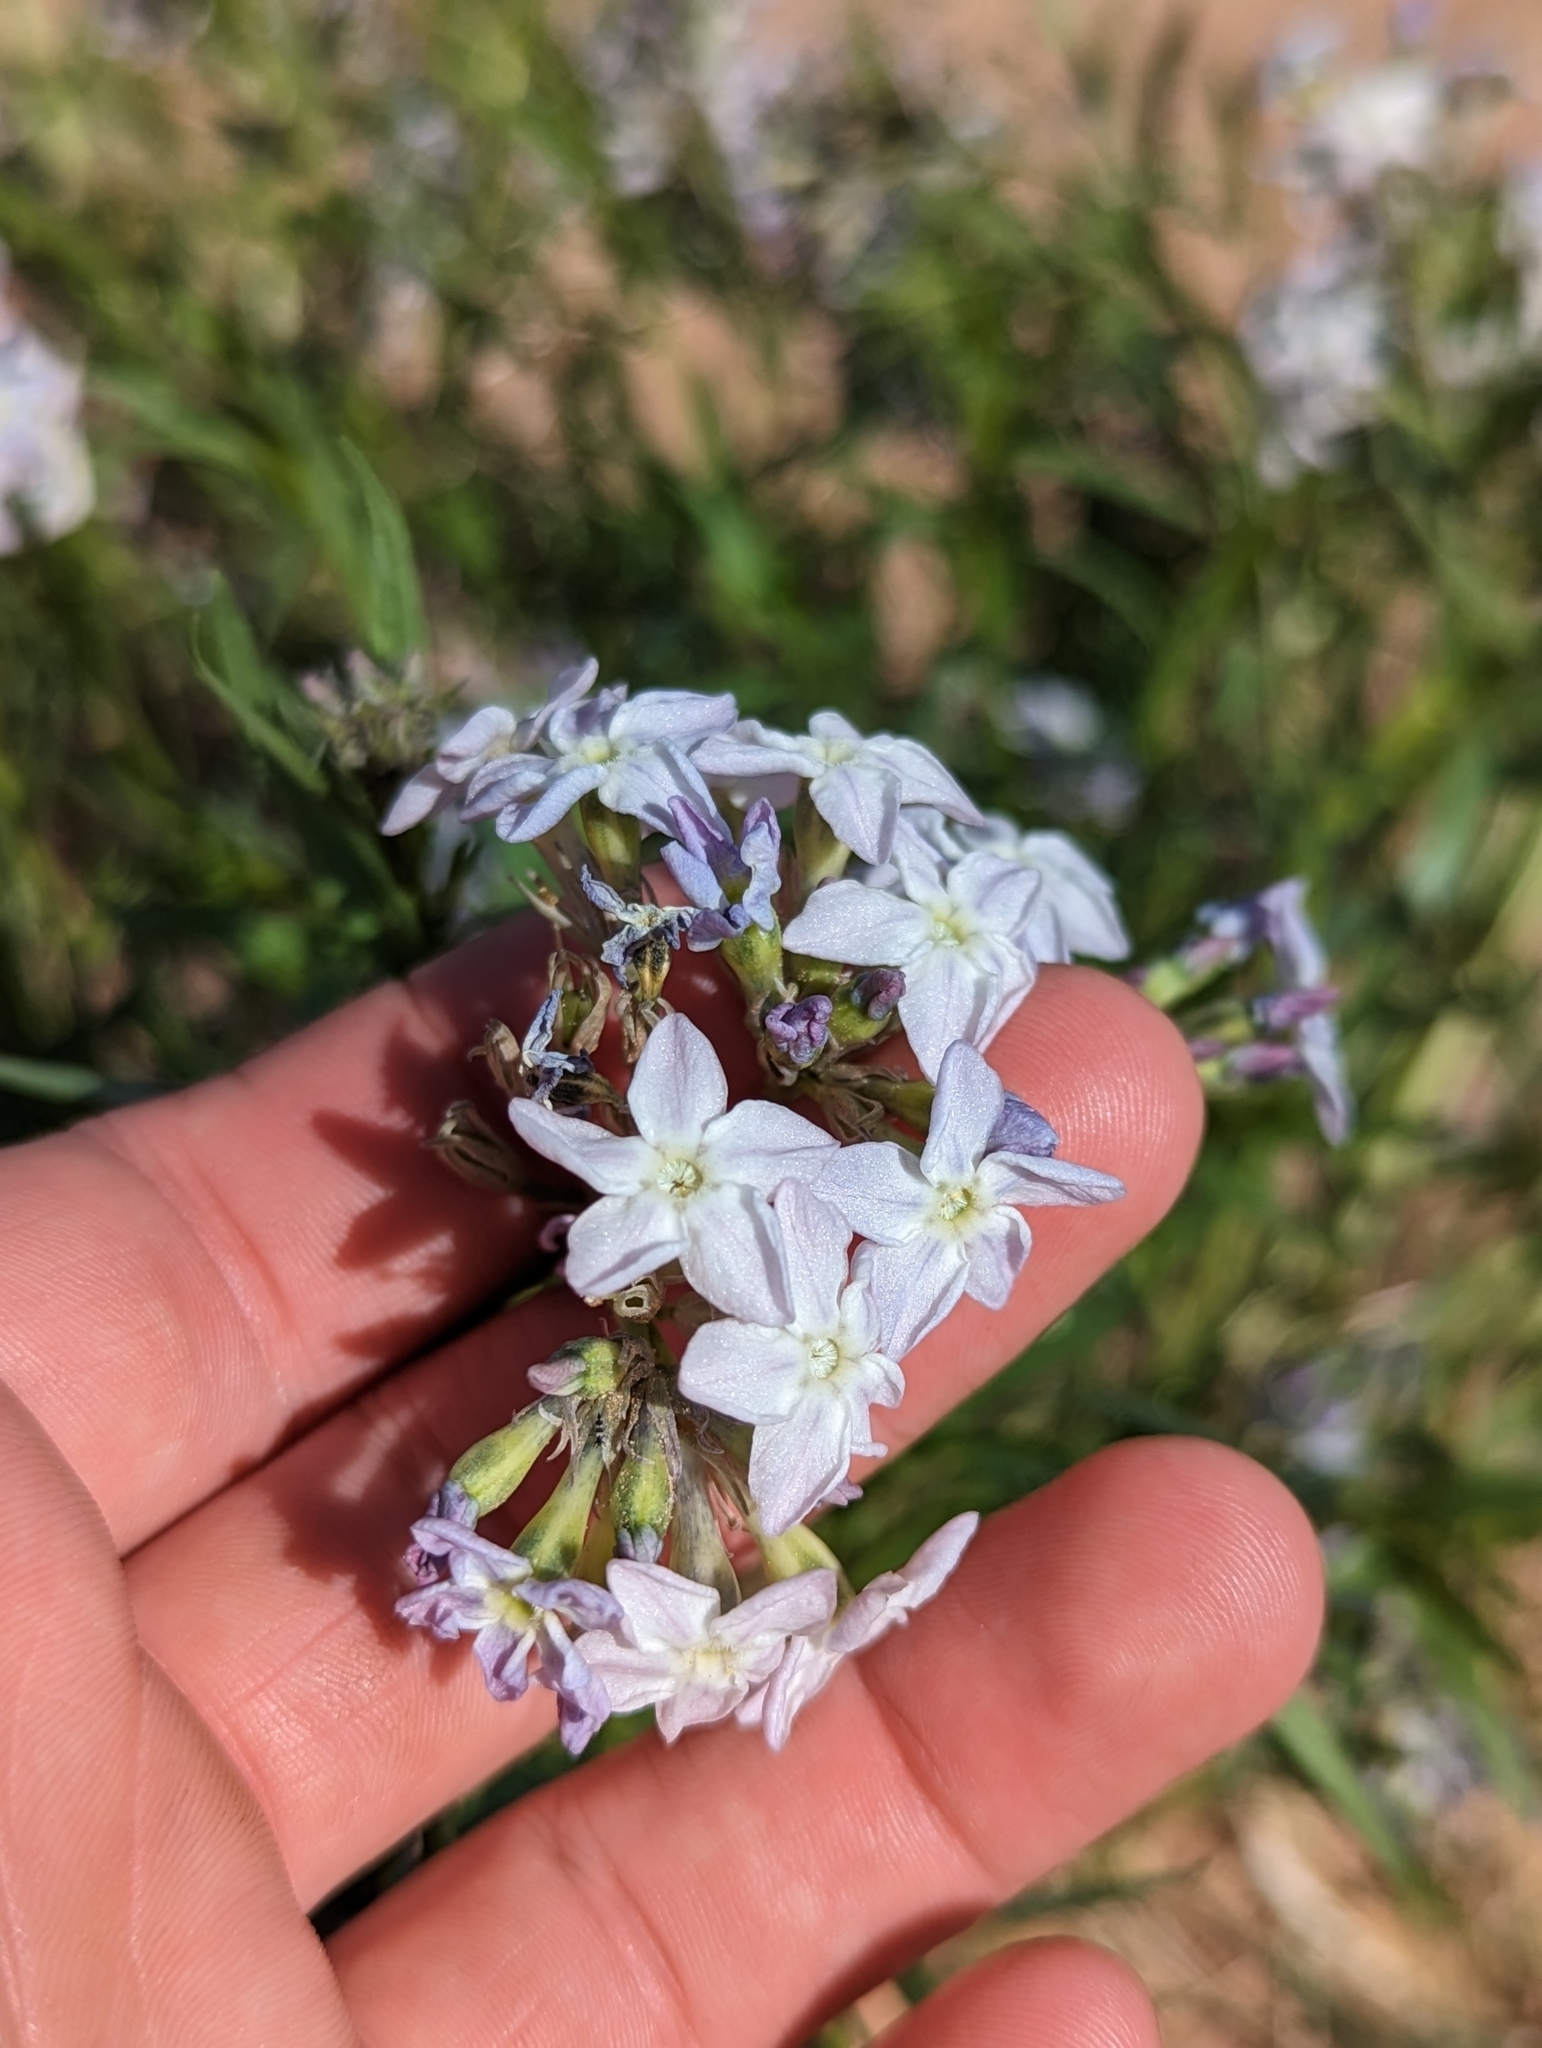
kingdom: Plantae
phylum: Tracheophyta
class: Magnoliopsida
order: Gentianales
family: Apocynaceae
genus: Amsonia
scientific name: Amsonia tomentosa
